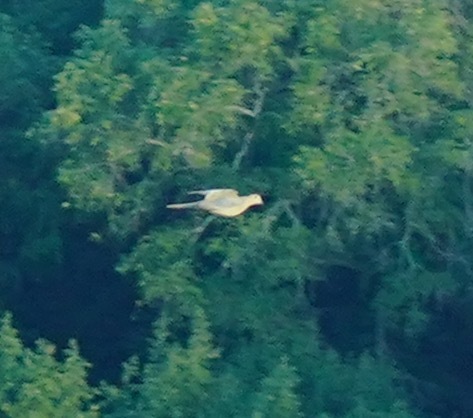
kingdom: Animalia
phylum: Chordata
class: Aves
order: Columbiformes
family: Columbidae
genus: Zenaida
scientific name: Zenaida macroura
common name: Mourning dove
